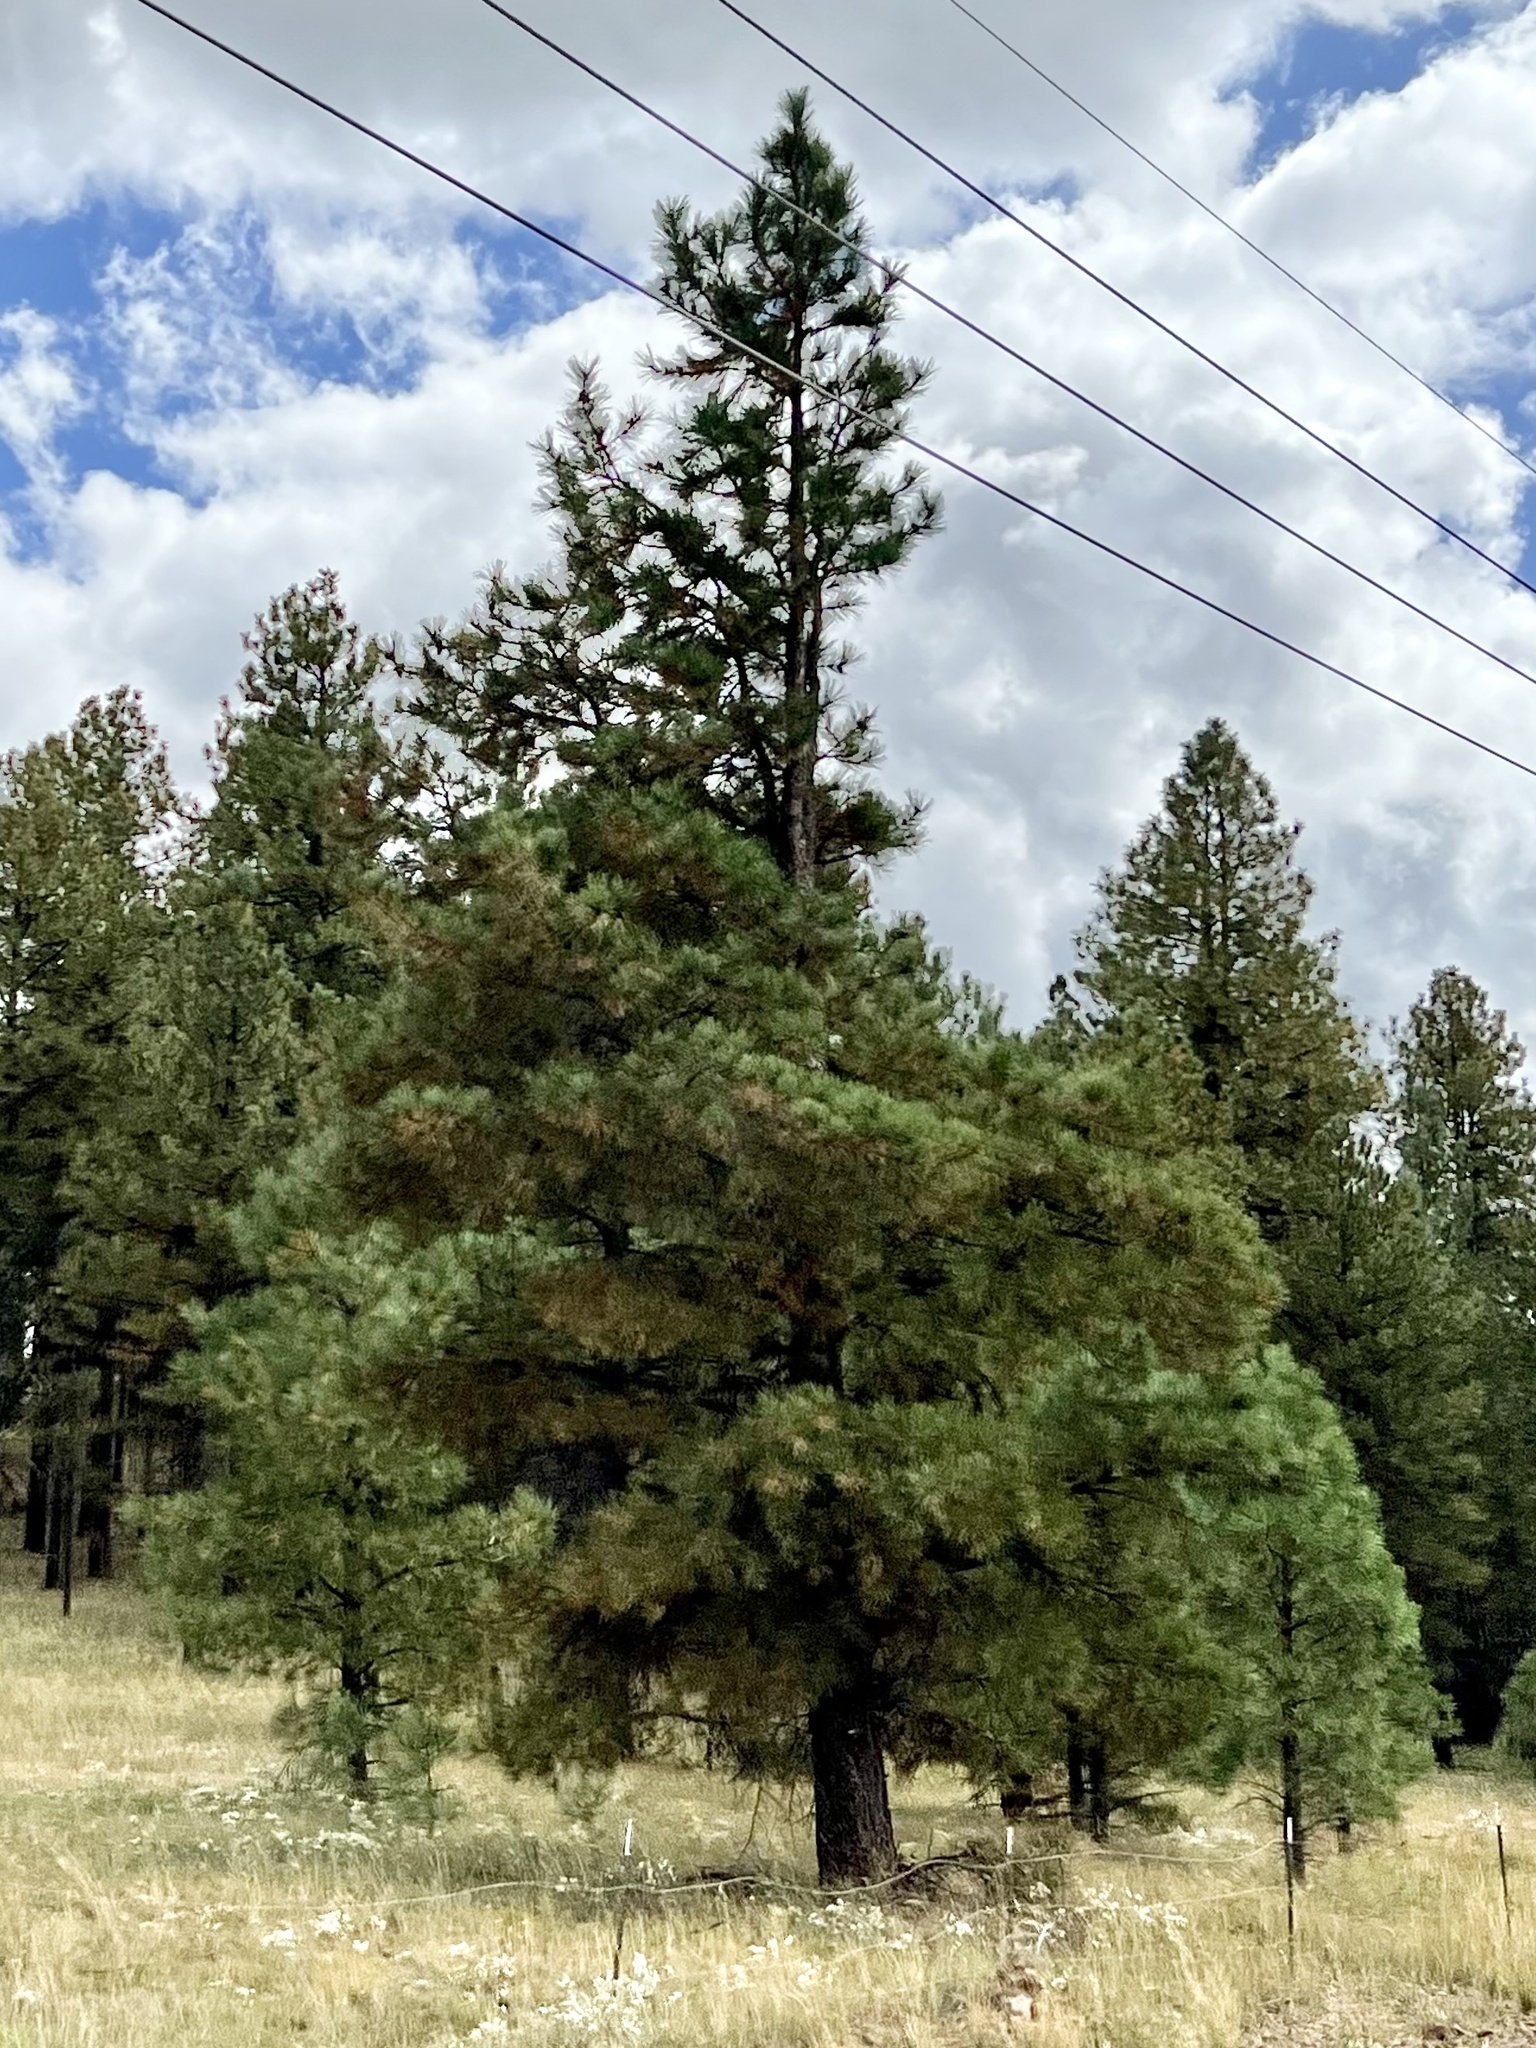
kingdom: Plantae
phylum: Tracheophyta
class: Pinopsida
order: Pinales
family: Pinaceae
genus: Pinus
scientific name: Pinus ponderosa
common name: Western yellow-pine
